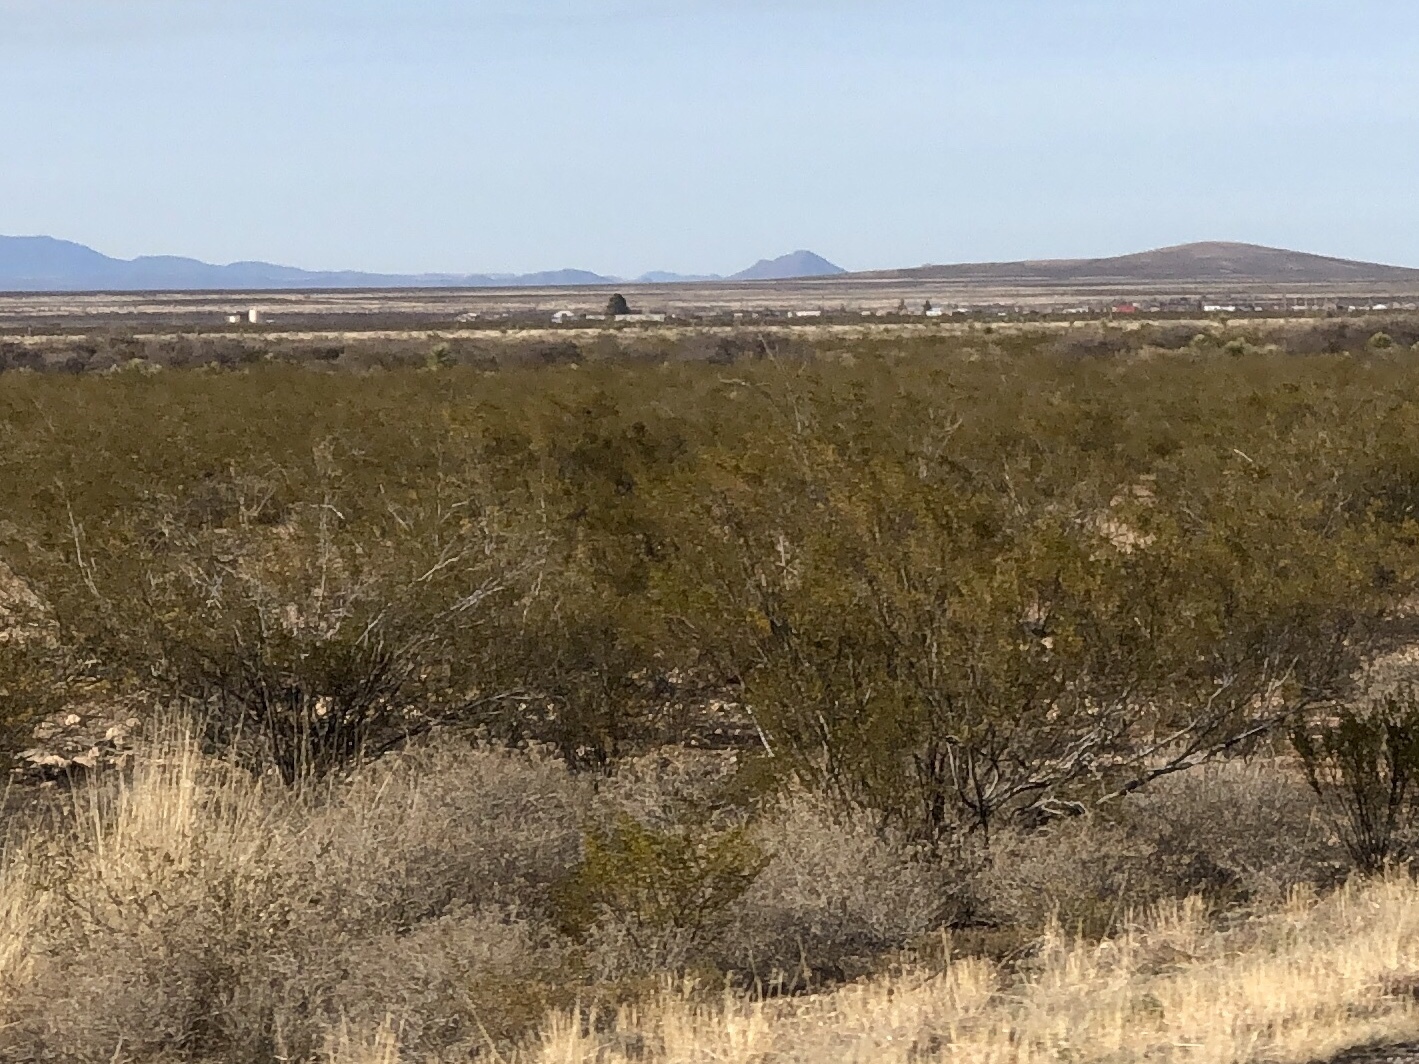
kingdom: Plantae
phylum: Tracheophyta
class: Magnoliopsida
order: Zygophyllales
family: Zygophyllaceae
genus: Larrea
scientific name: Larrea tridentata
